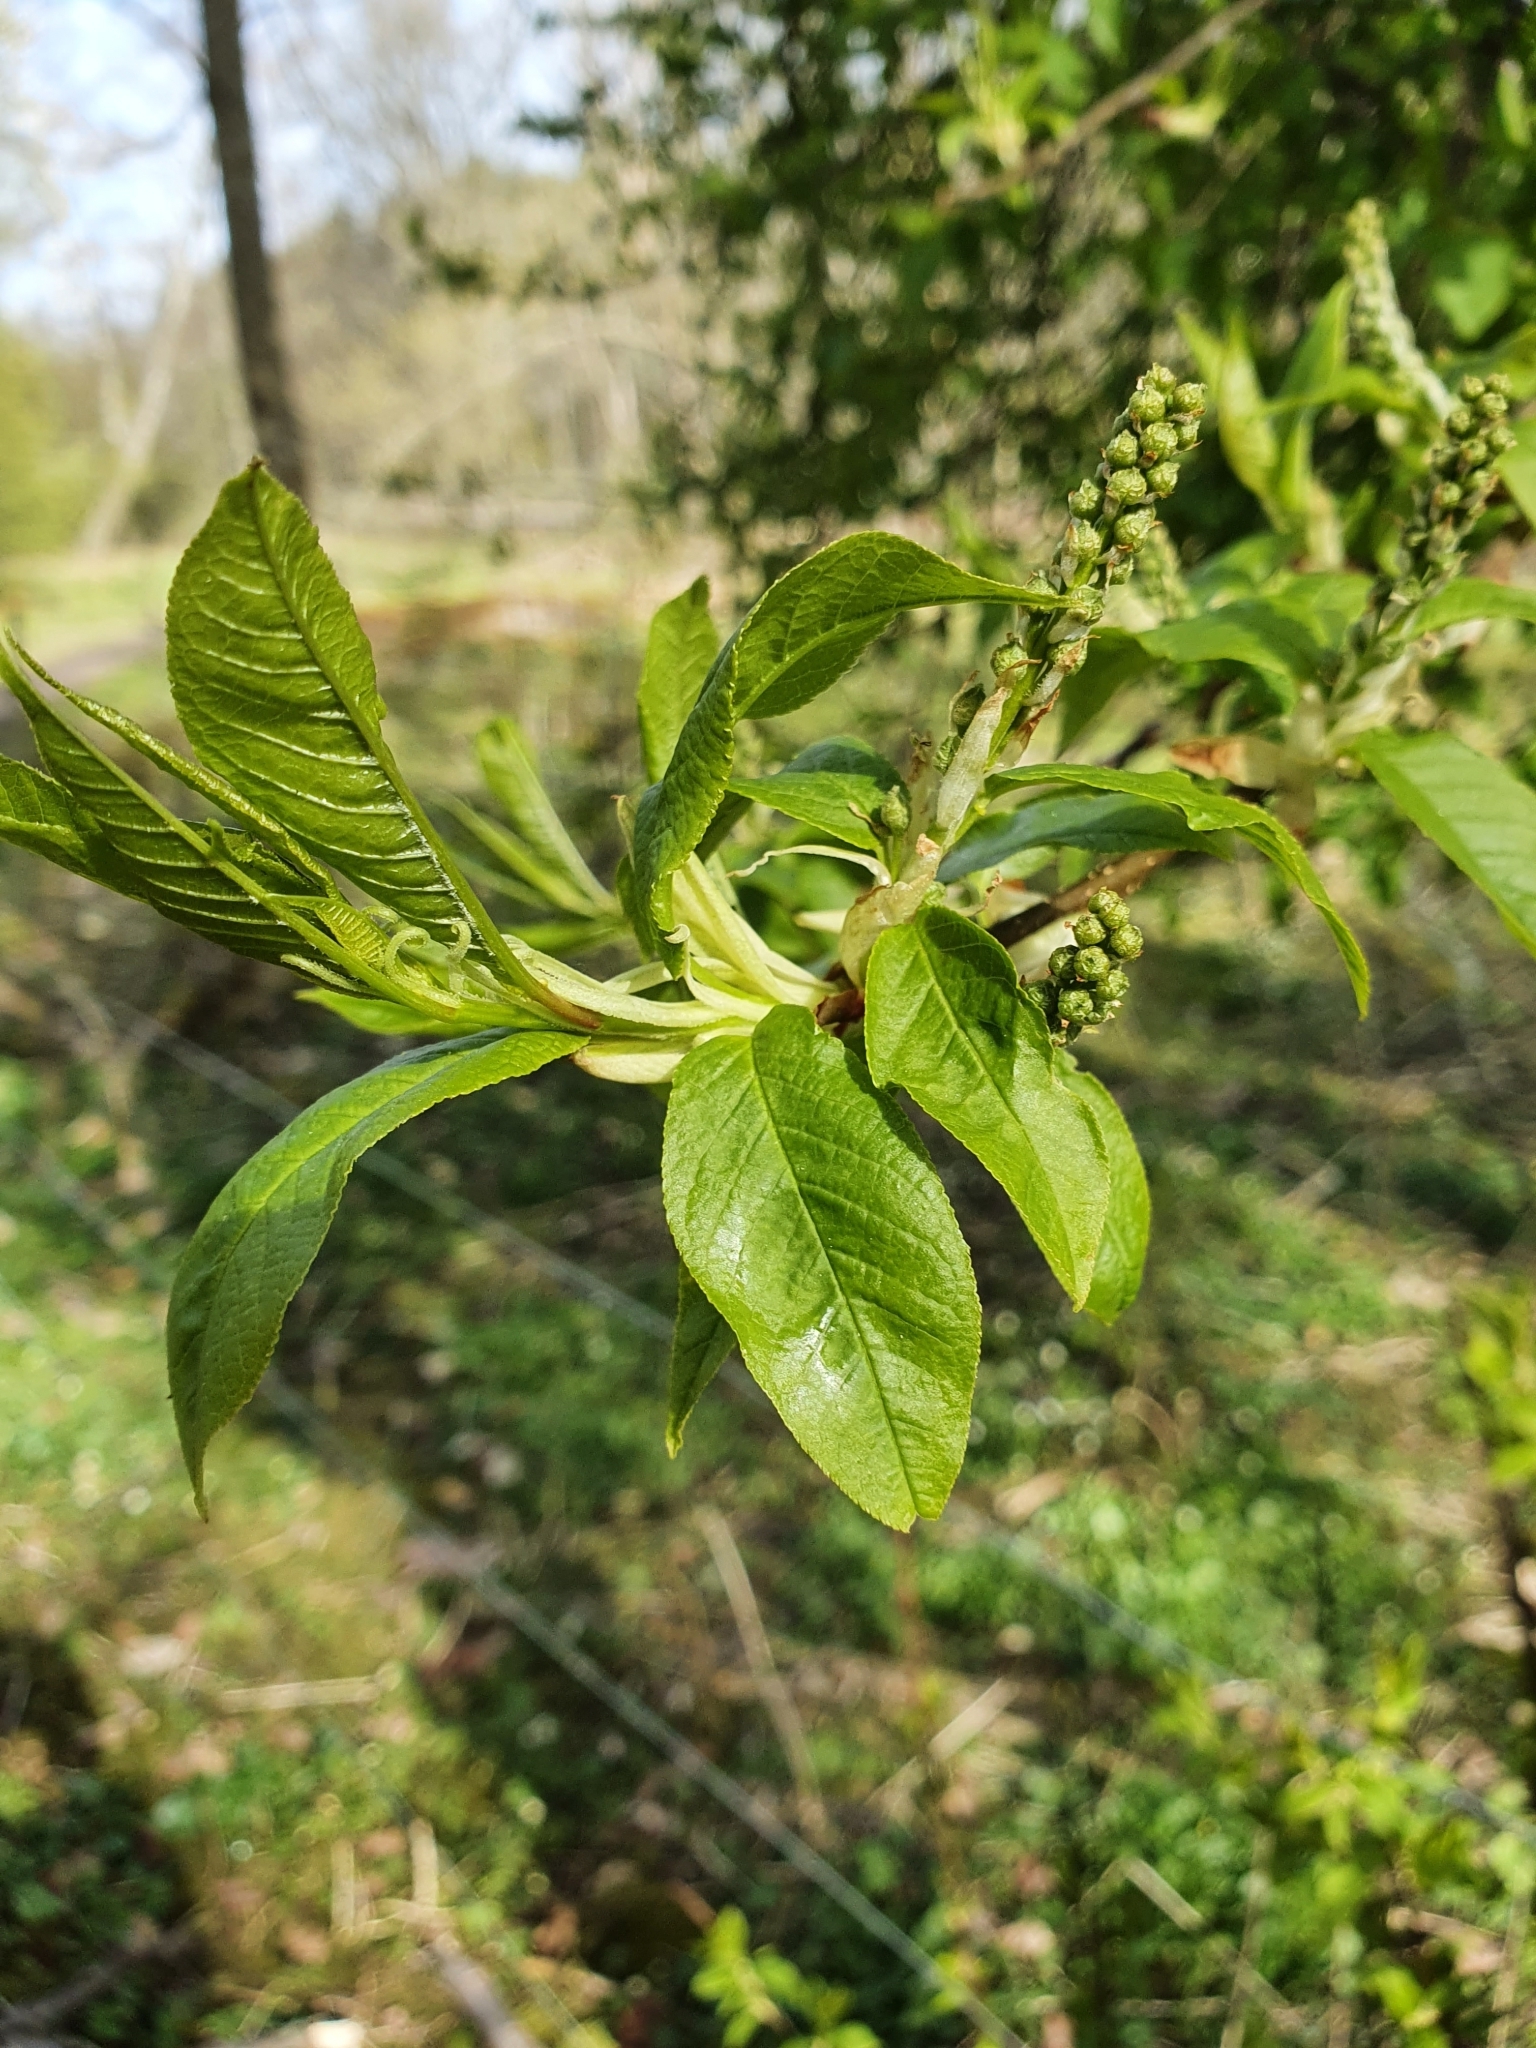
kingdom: Plantae
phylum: Tracheophyta
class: Magnoliopsida
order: Rosales
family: Rosaceae
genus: Prunus
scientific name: Prunus padus
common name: Bird cherry
